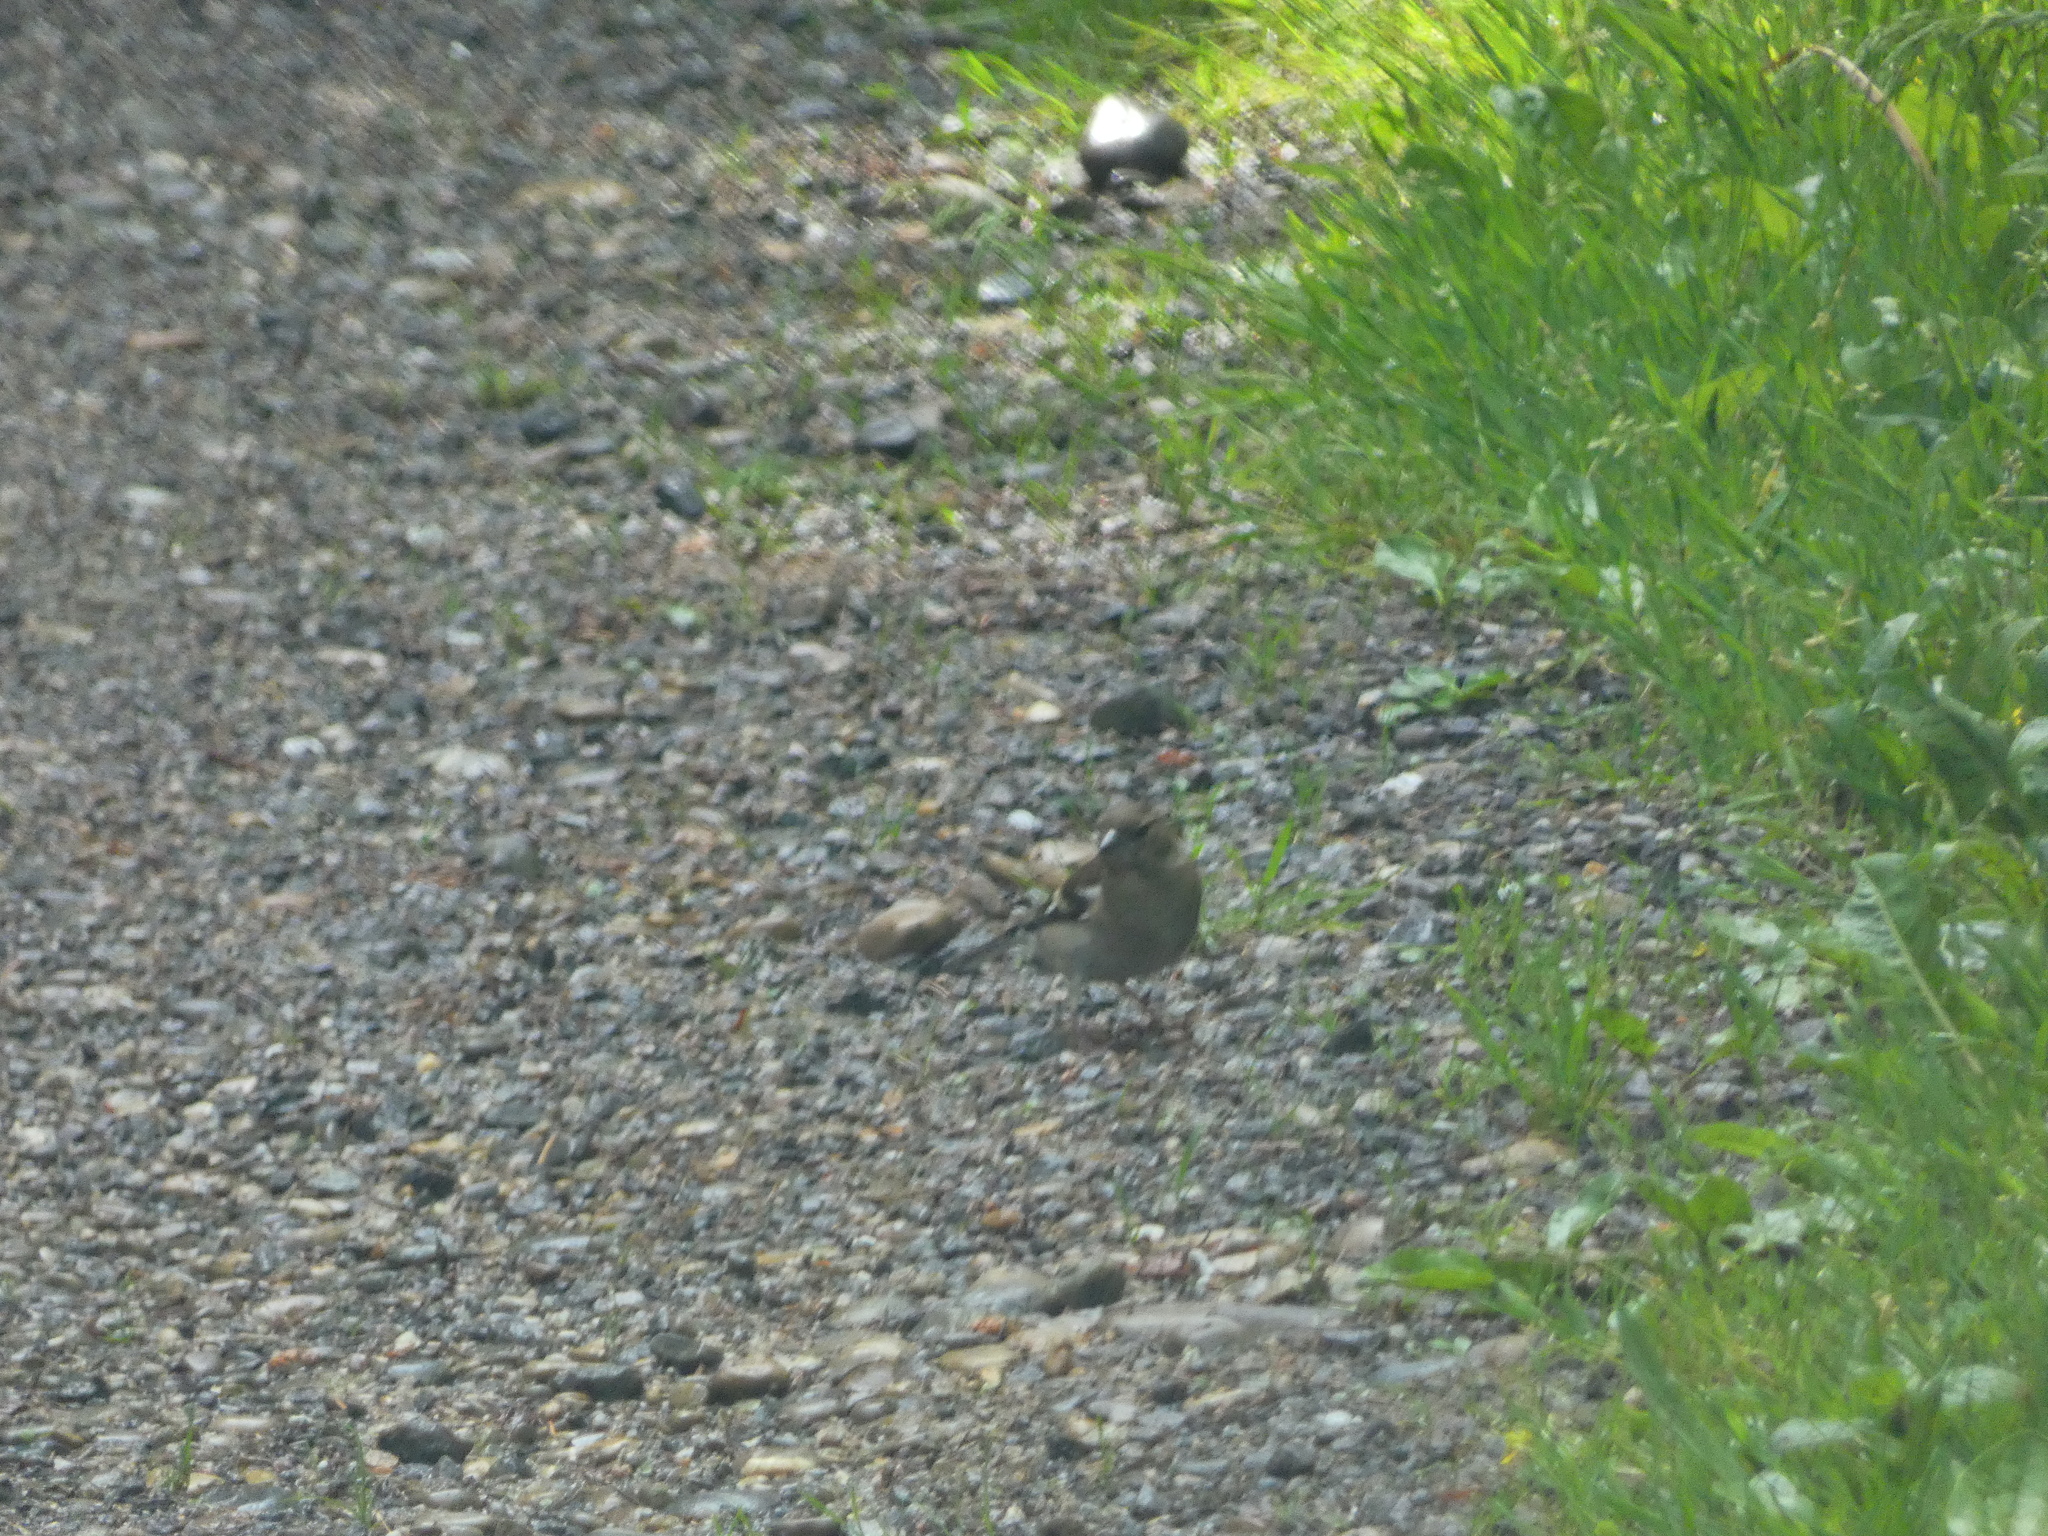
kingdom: Animalia
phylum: Chordata
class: Aves
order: Passeriformes
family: Fringillidae
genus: Fringilla
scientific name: Fringilla coelebs
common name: Common chaffinch
